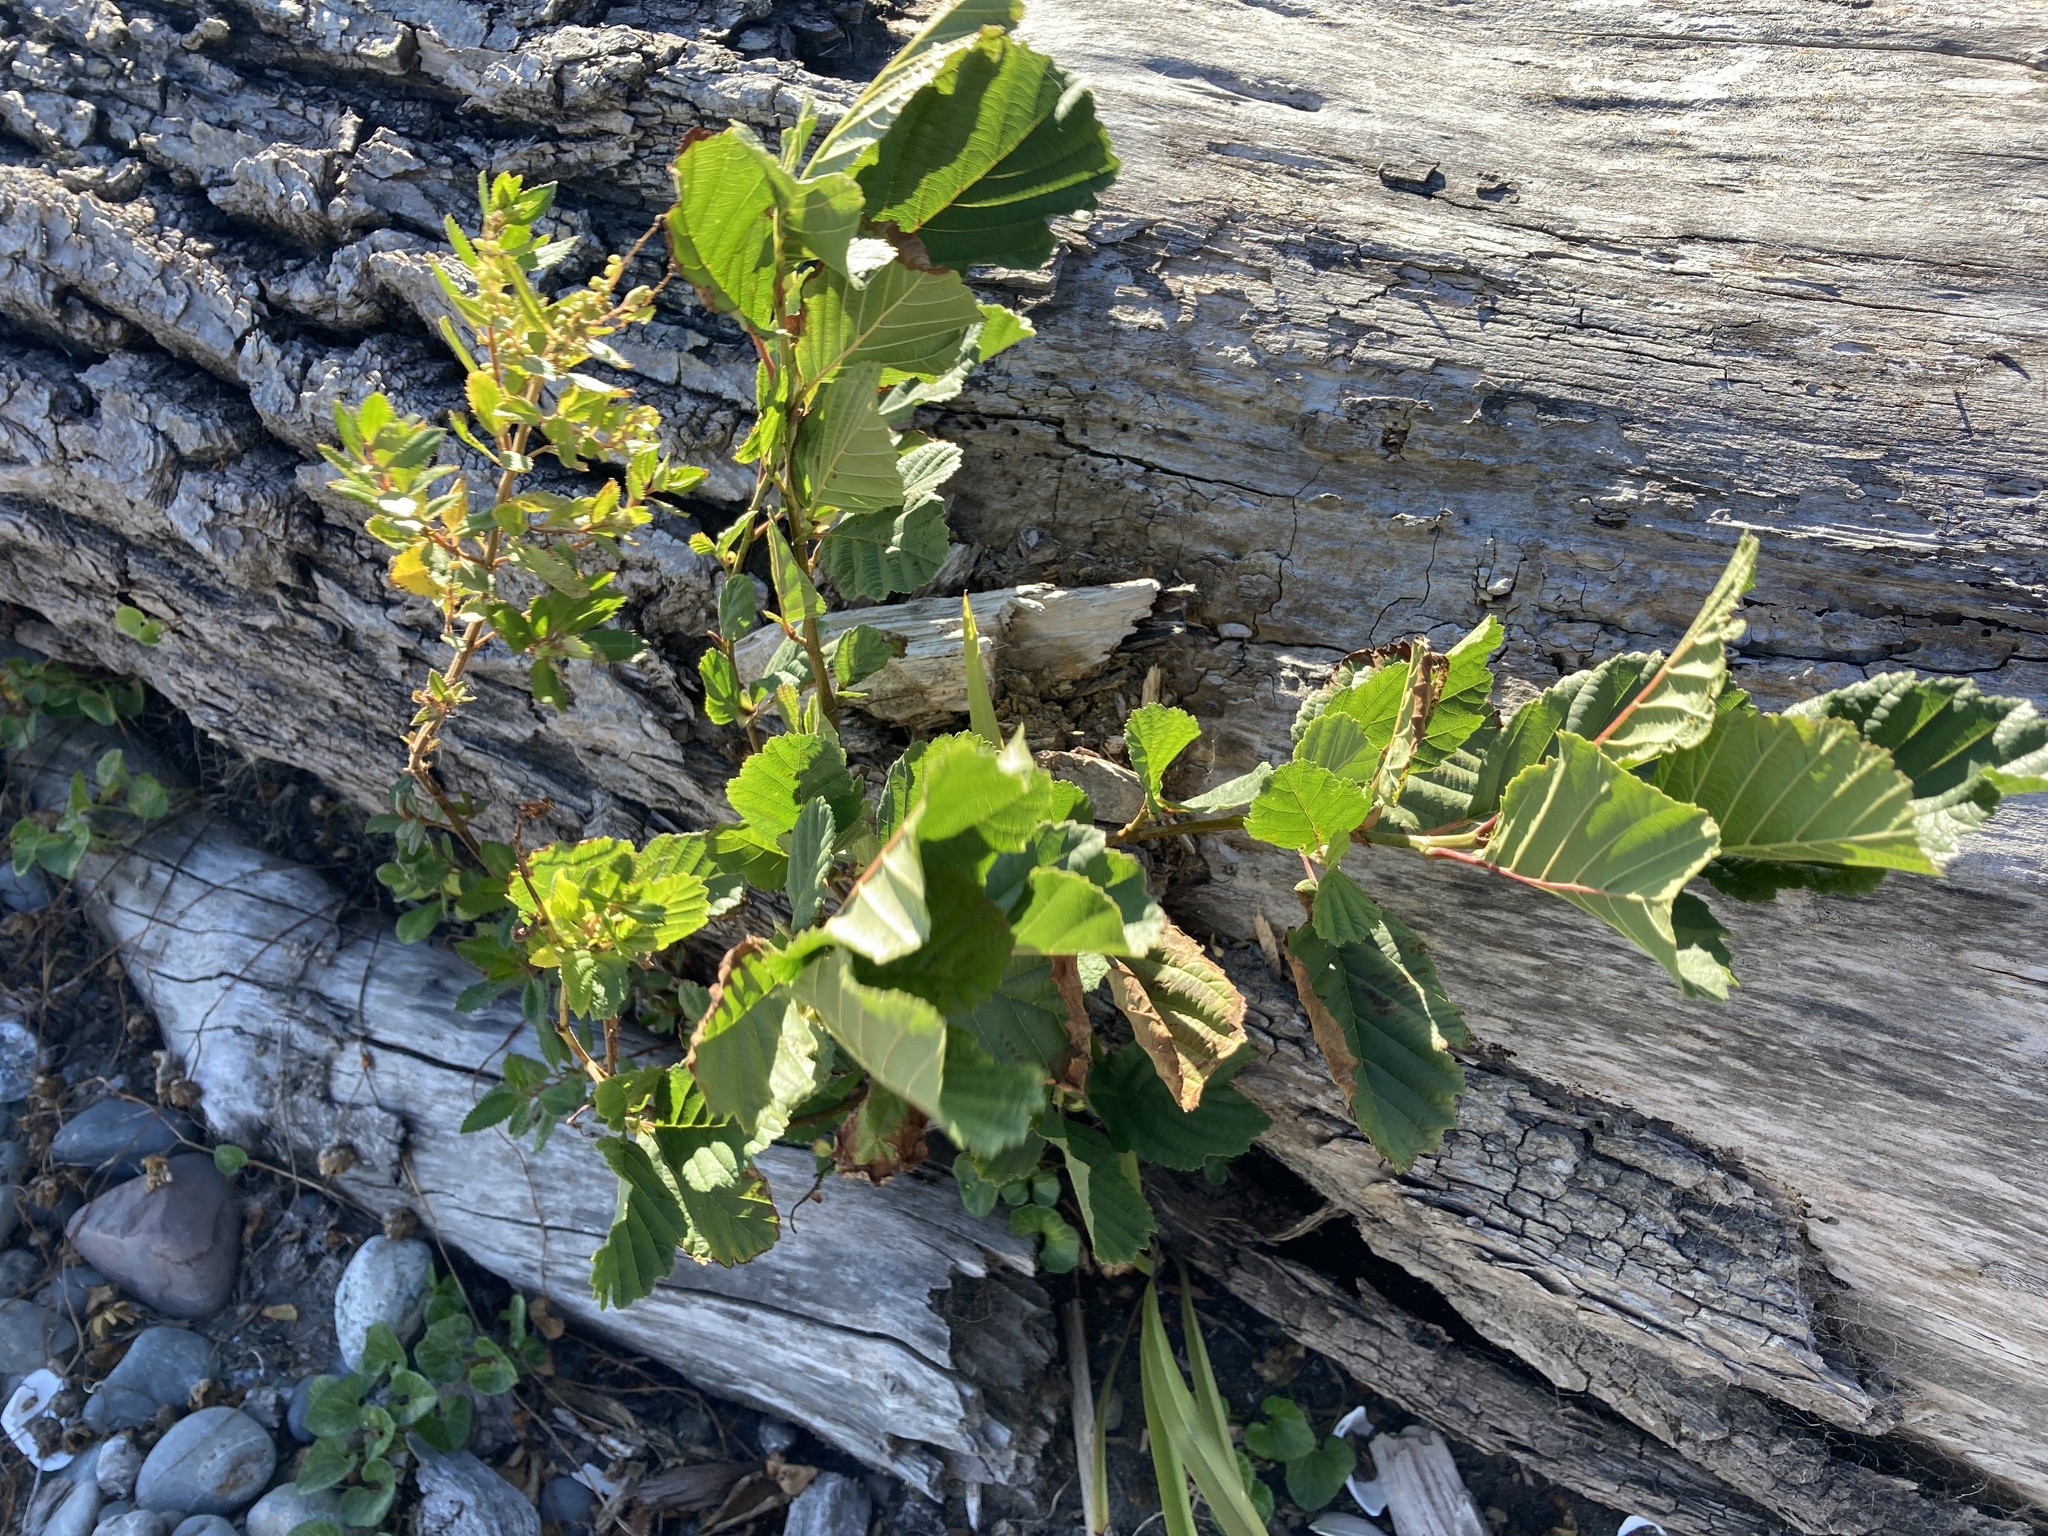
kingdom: Plantae
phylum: Tracheophyta
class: Magnoliopsida
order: Fagales
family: Betulaceae
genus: Alnus
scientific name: Alnus glutinosa
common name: Black alder
